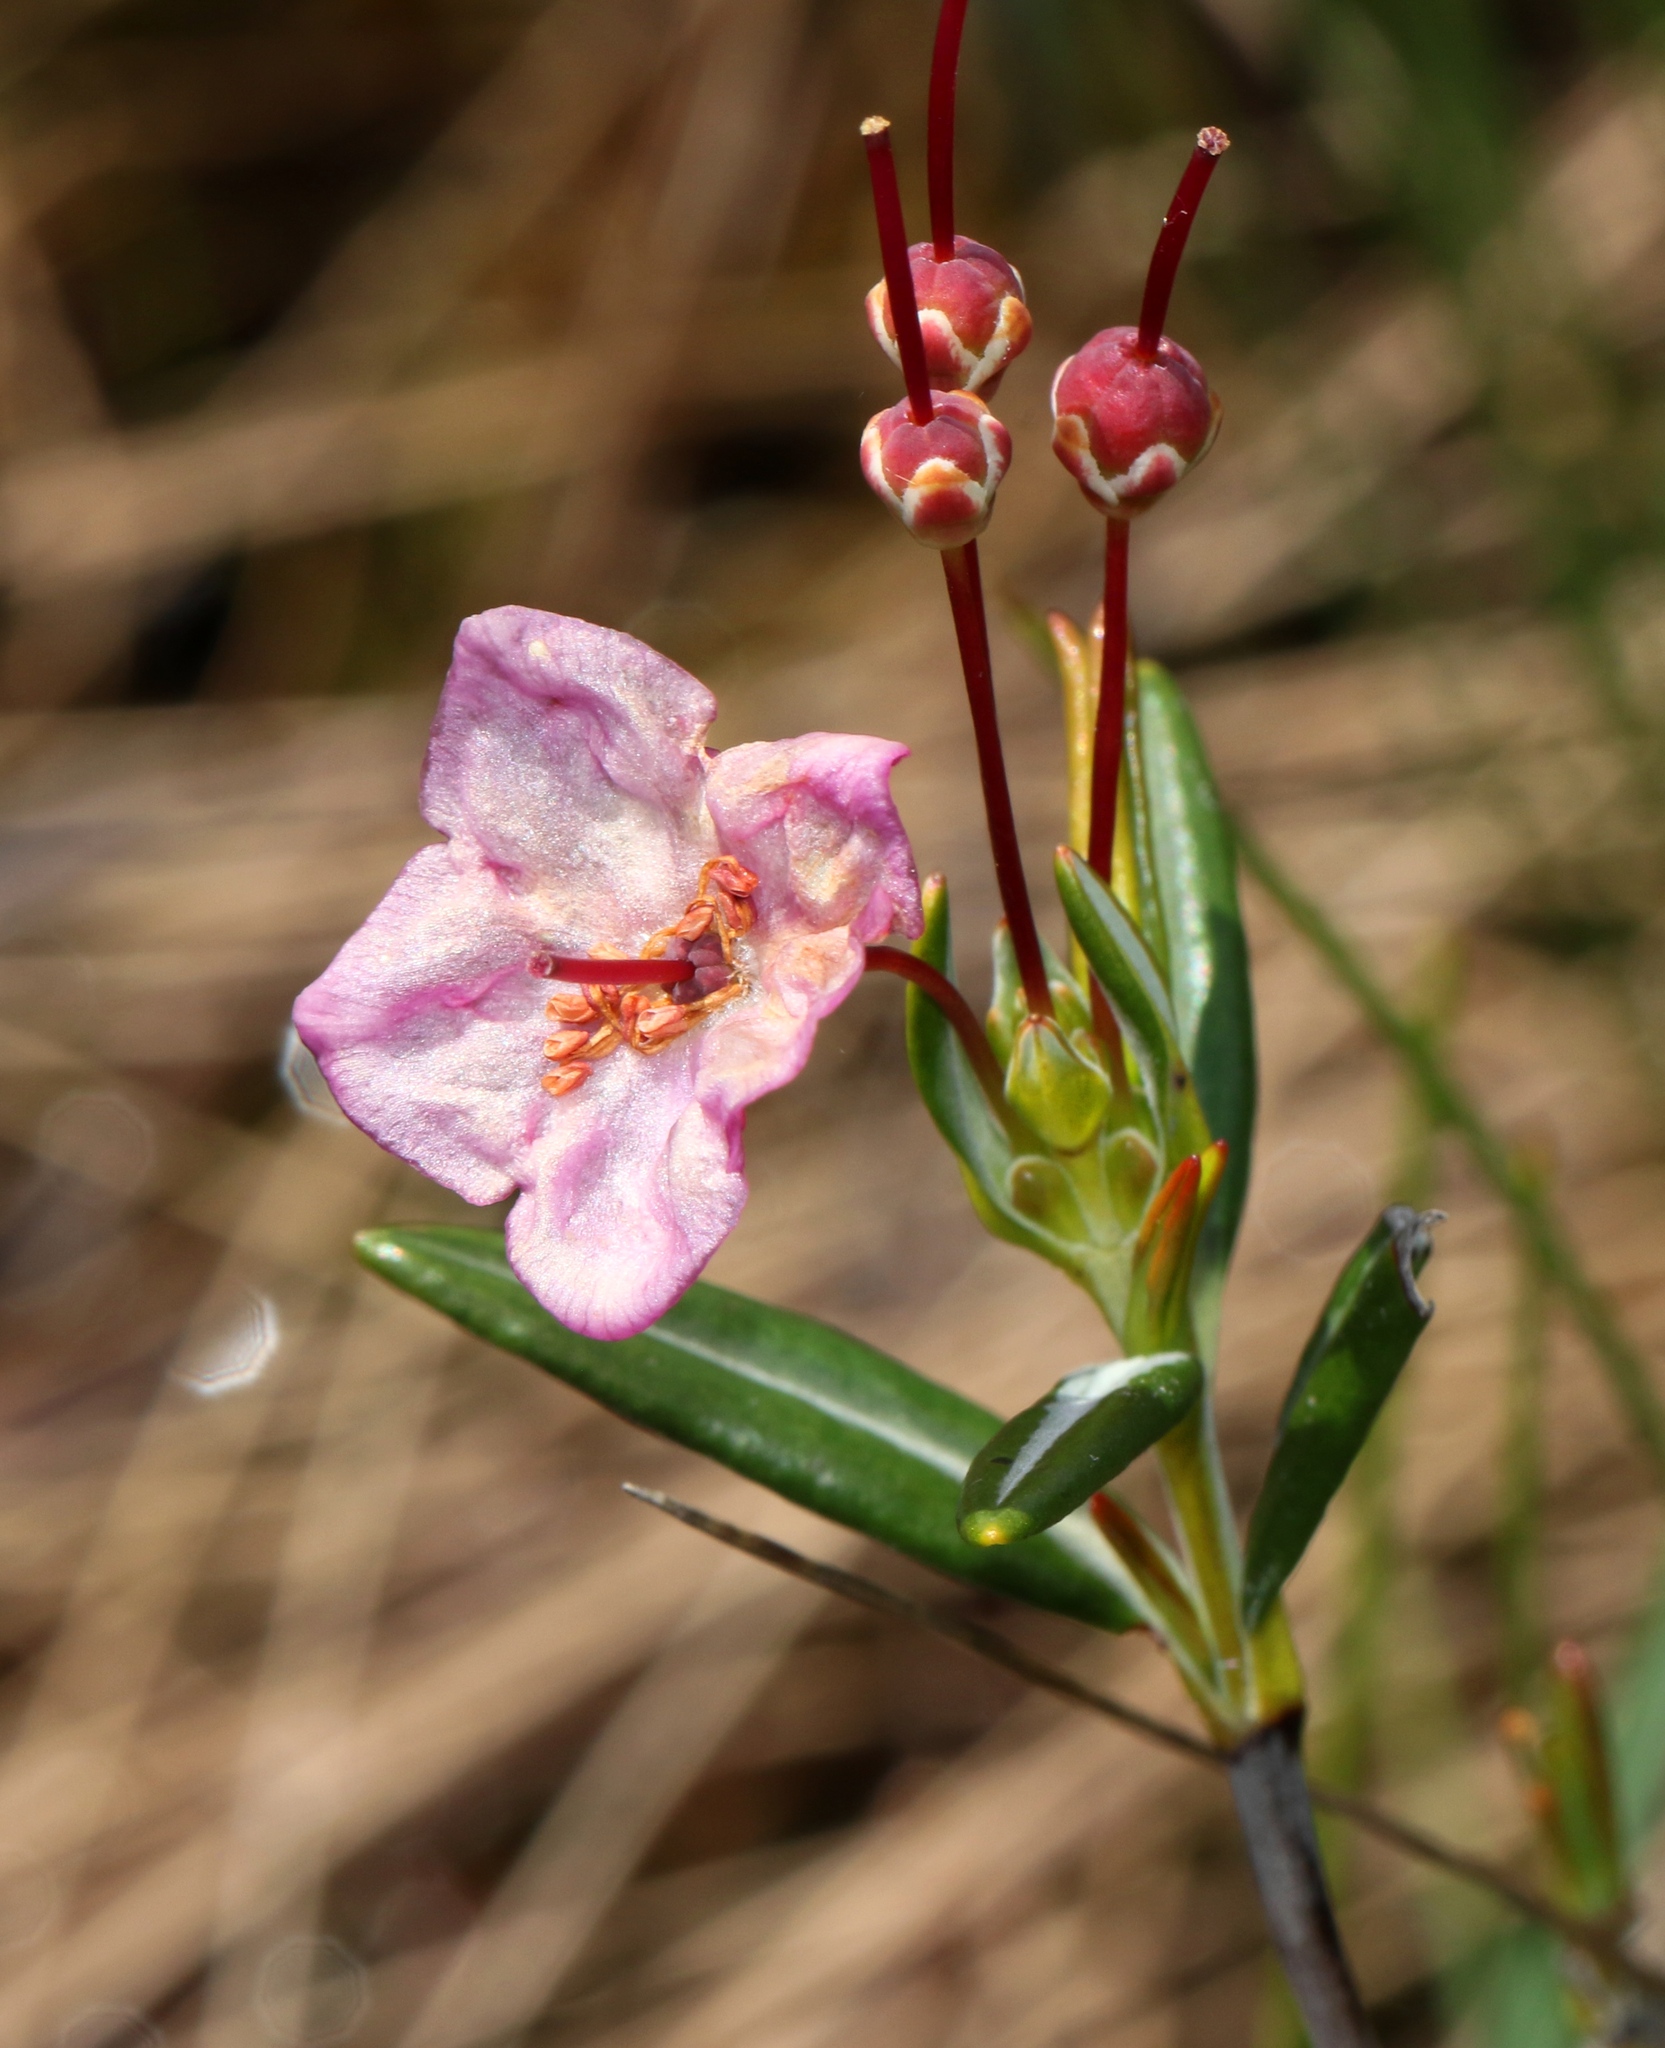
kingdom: Plantae
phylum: Tracheophyta
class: Magnoliopsida
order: Ericales
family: Ericaceae
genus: Kalmia
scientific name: Kalmia polifolia
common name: Bog-laurel
